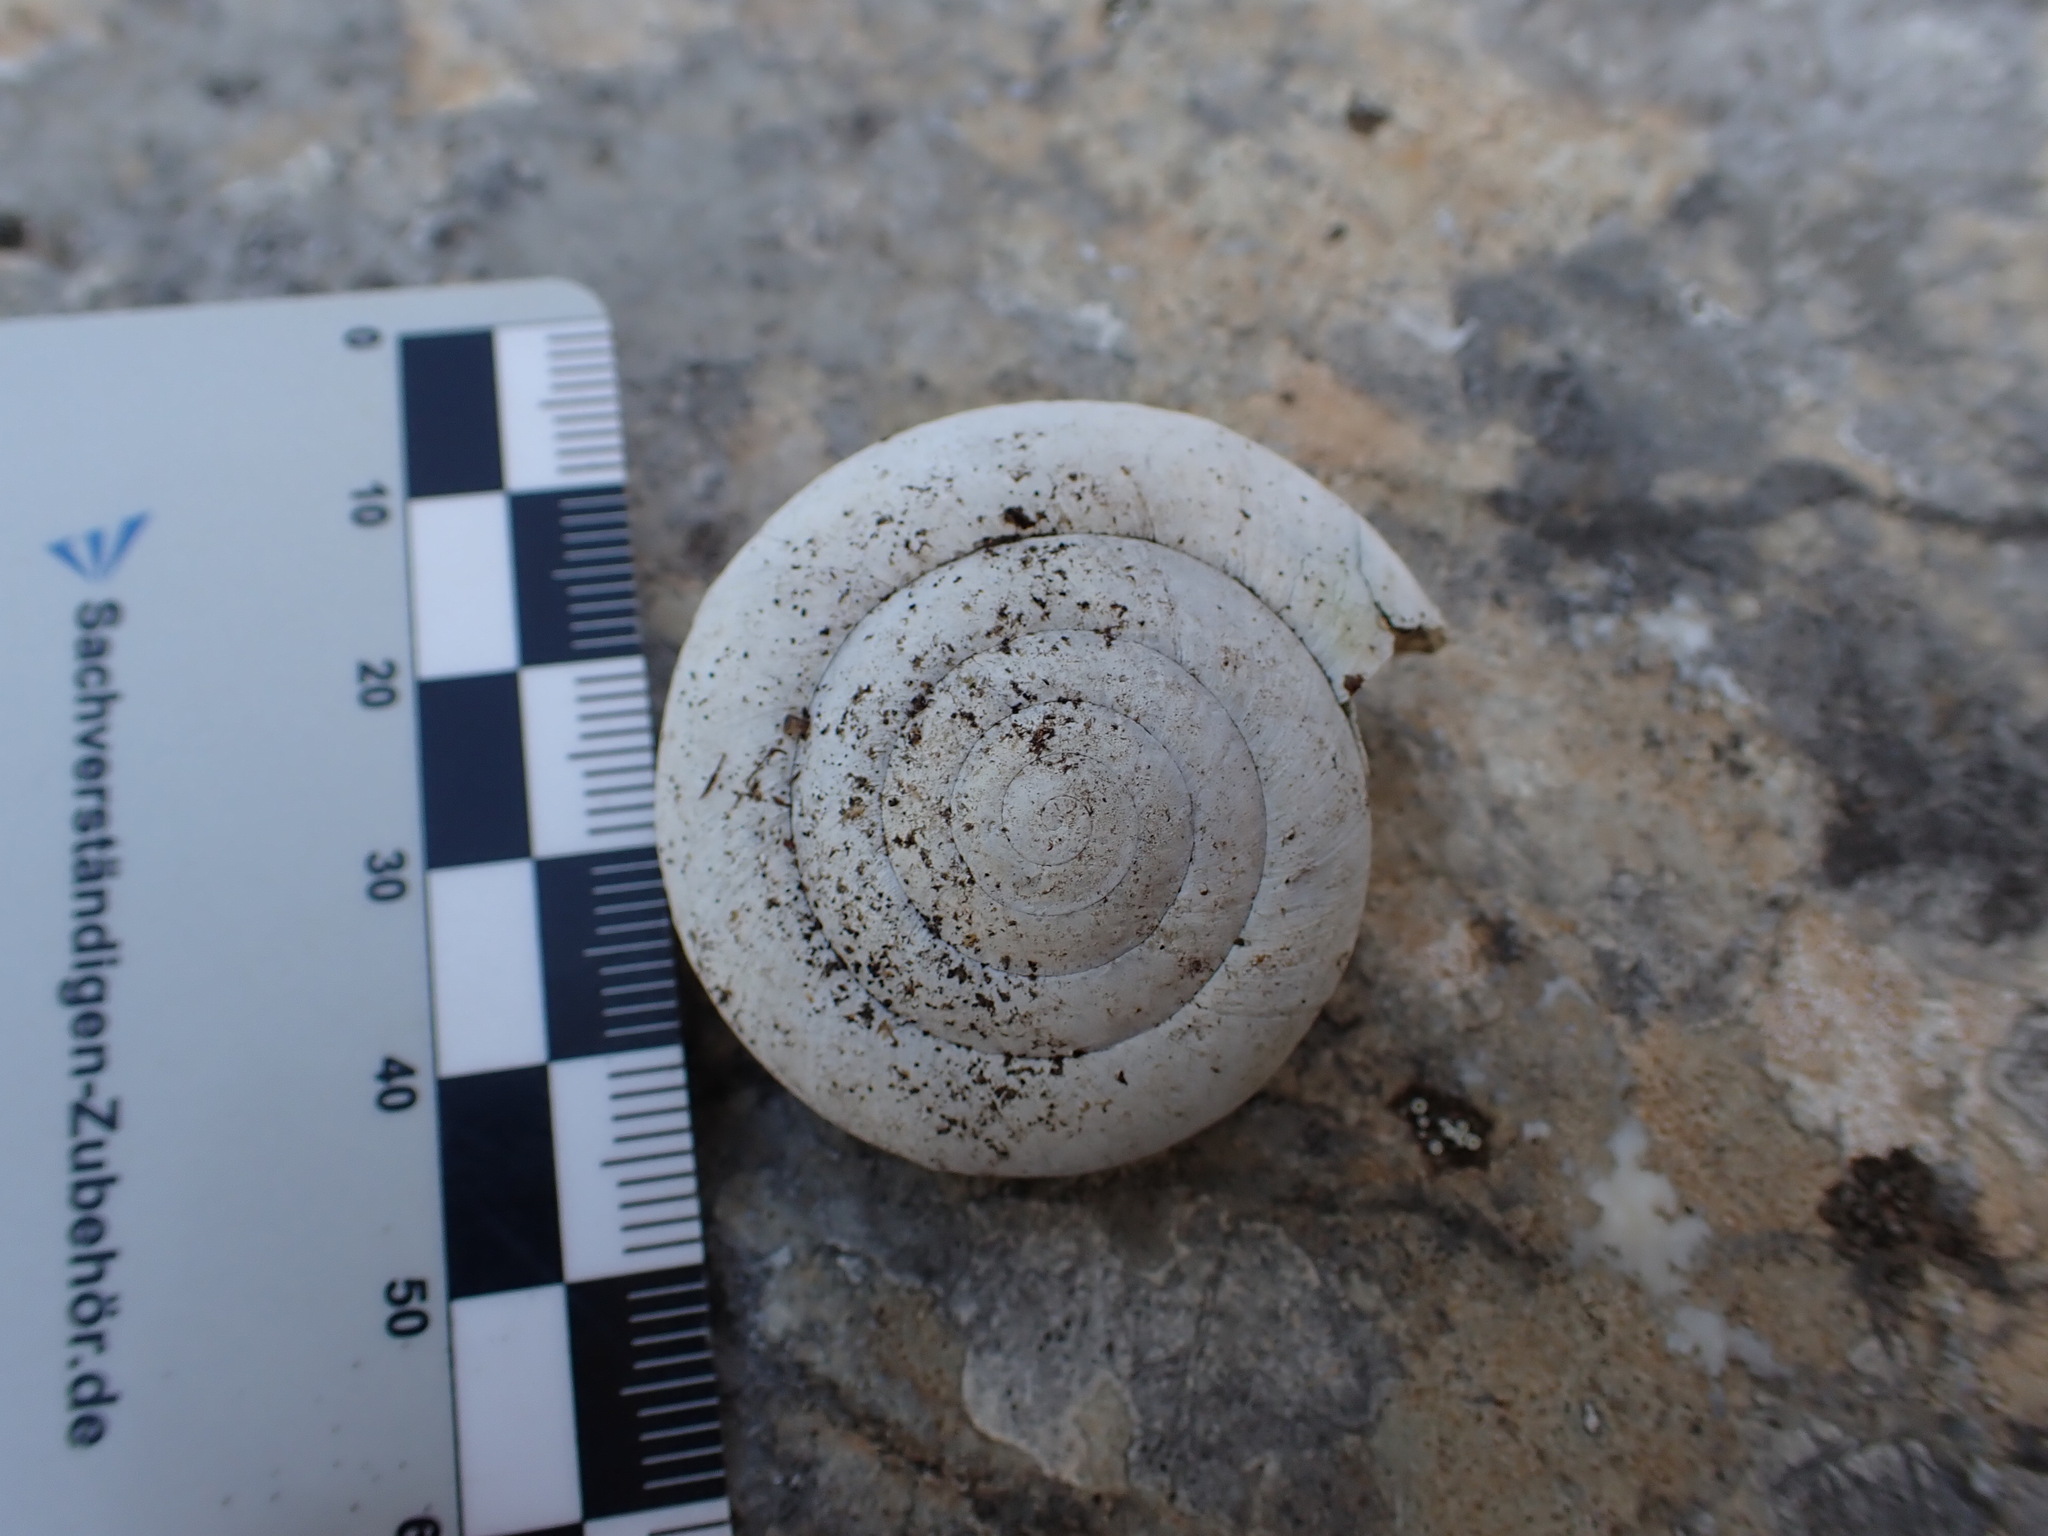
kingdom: Animalia
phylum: Mollusca
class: Gastropoda
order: Stylommatophora
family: Zonitidae
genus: Zonites
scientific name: Zonites algirus
